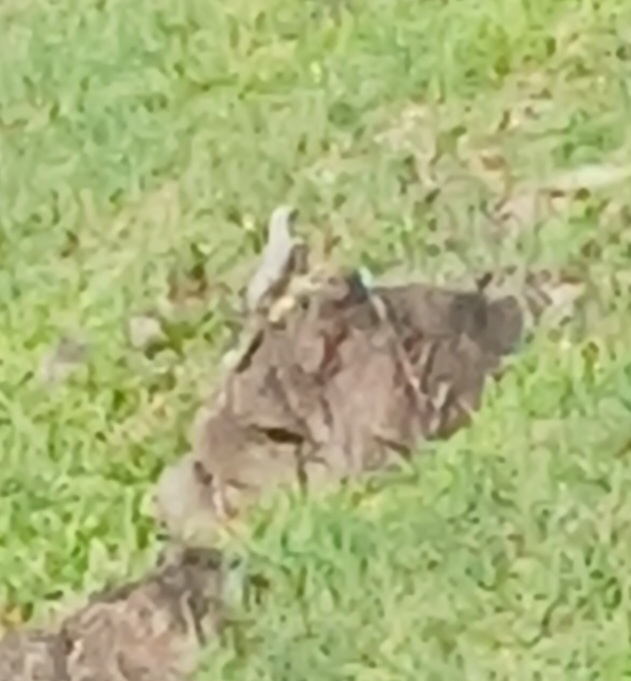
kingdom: Animalia
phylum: Chordata
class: Aves
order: Passeriformes
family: Mimidae
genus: Mimus
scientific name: Mimus gilvus
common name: Tropical mockingbird
